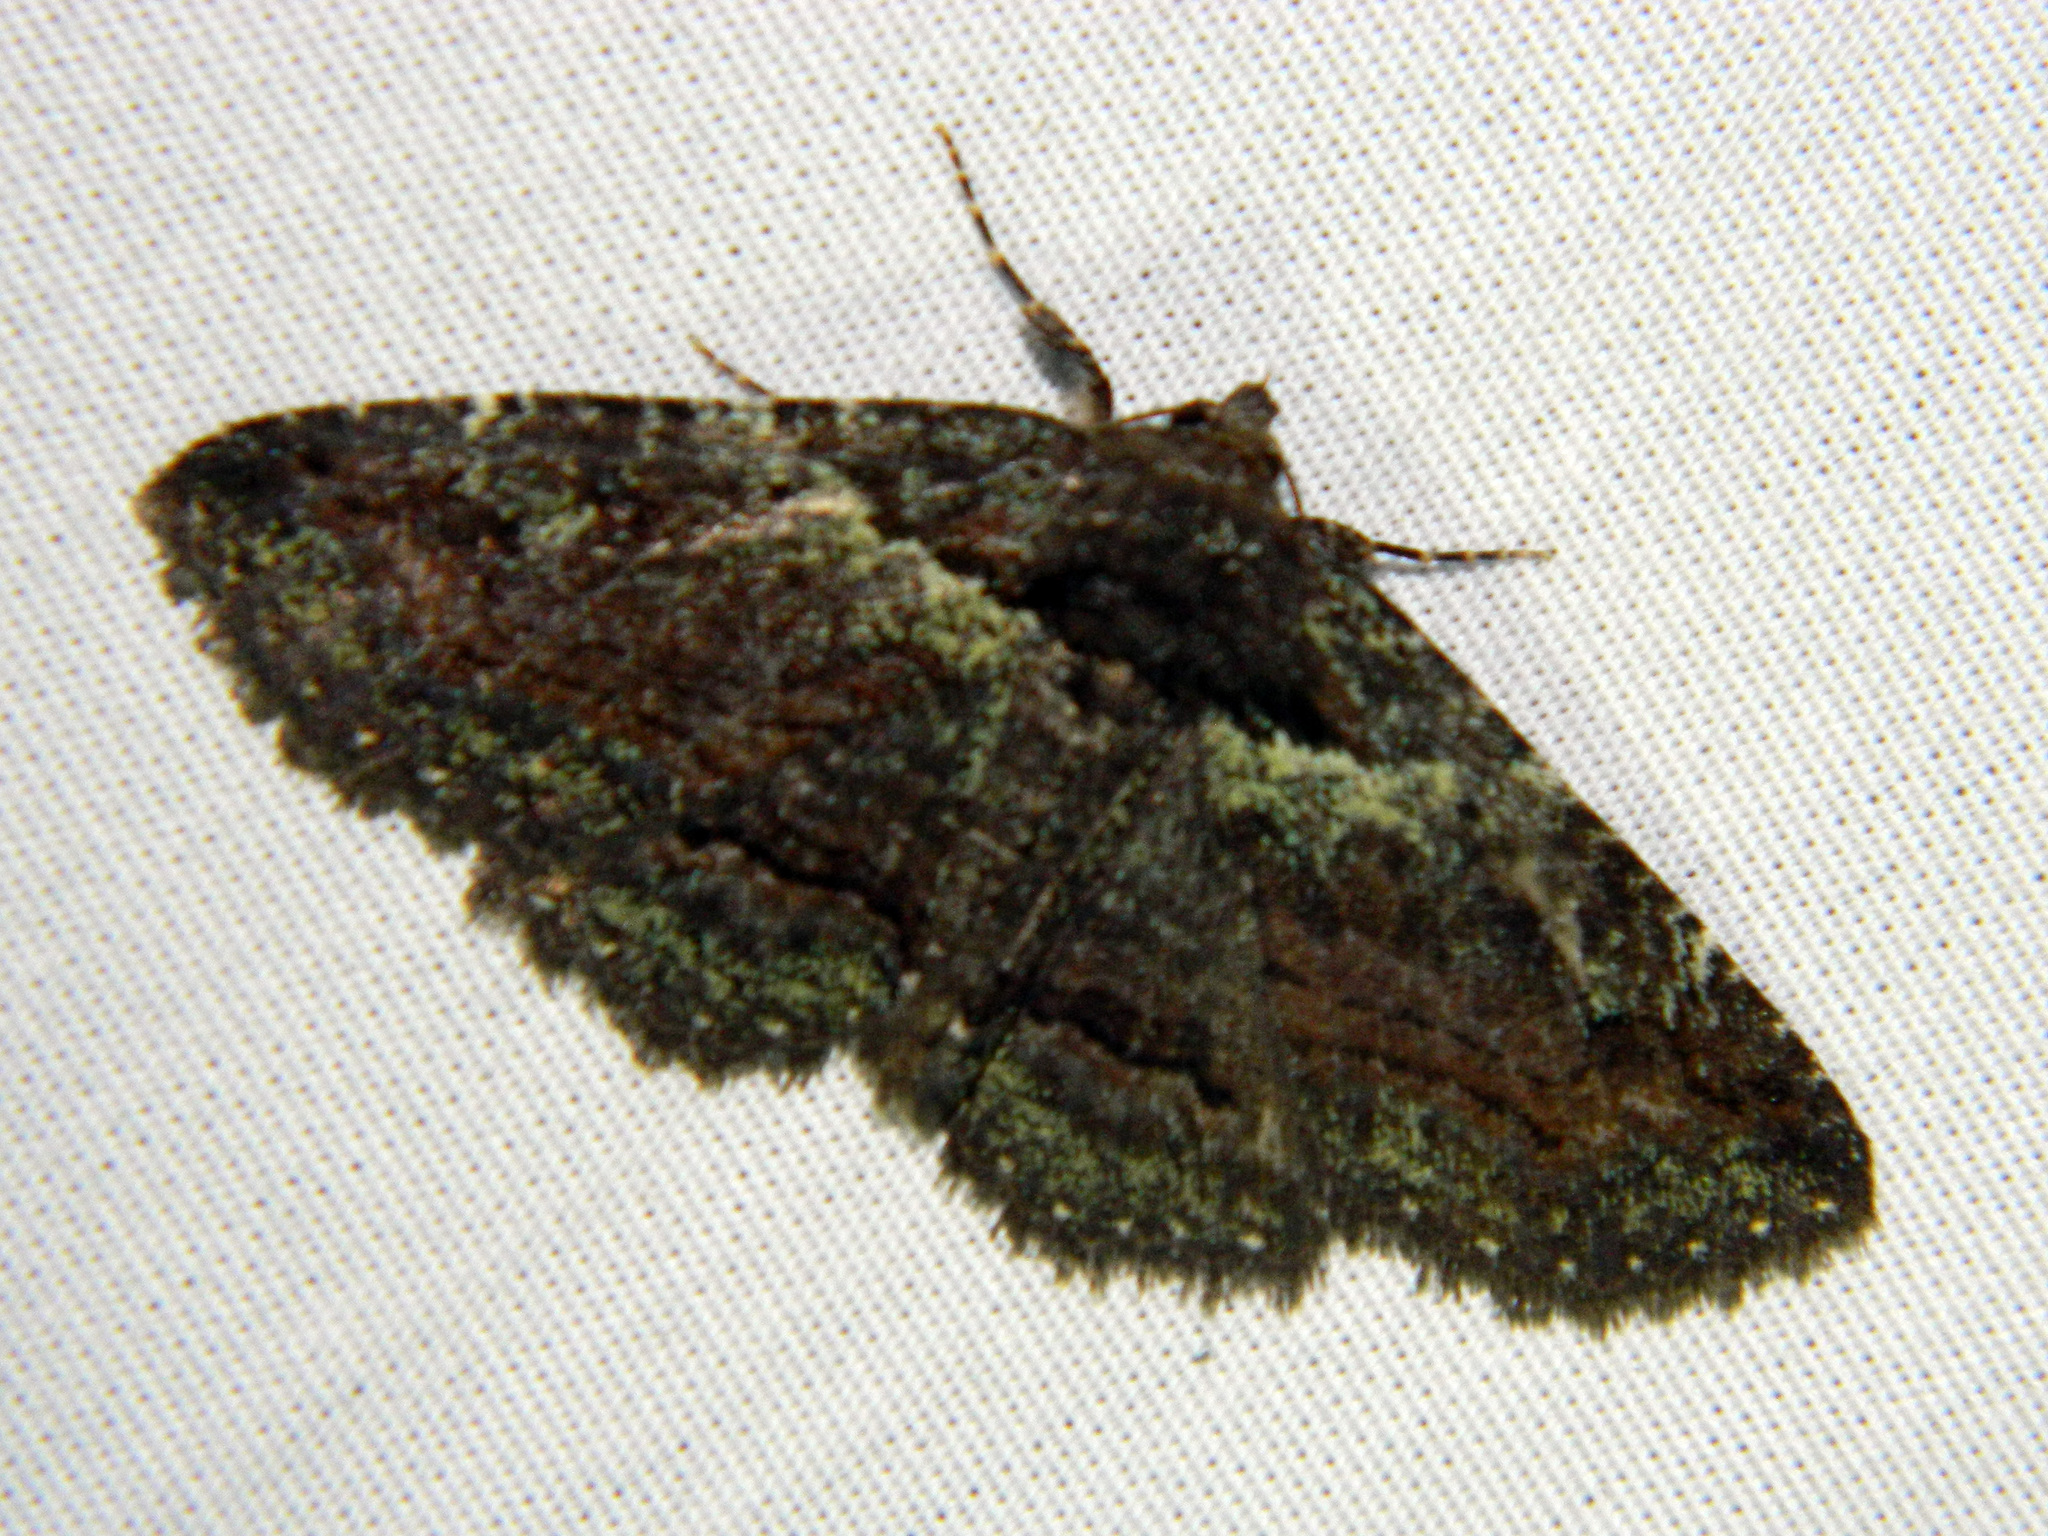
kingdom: Animalia
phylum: Arthropoda
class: Insecta
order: Lepidoptera
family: Erebidae
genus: Zale
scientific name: Zale aeruginosa
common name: Green-dusted zale moth
